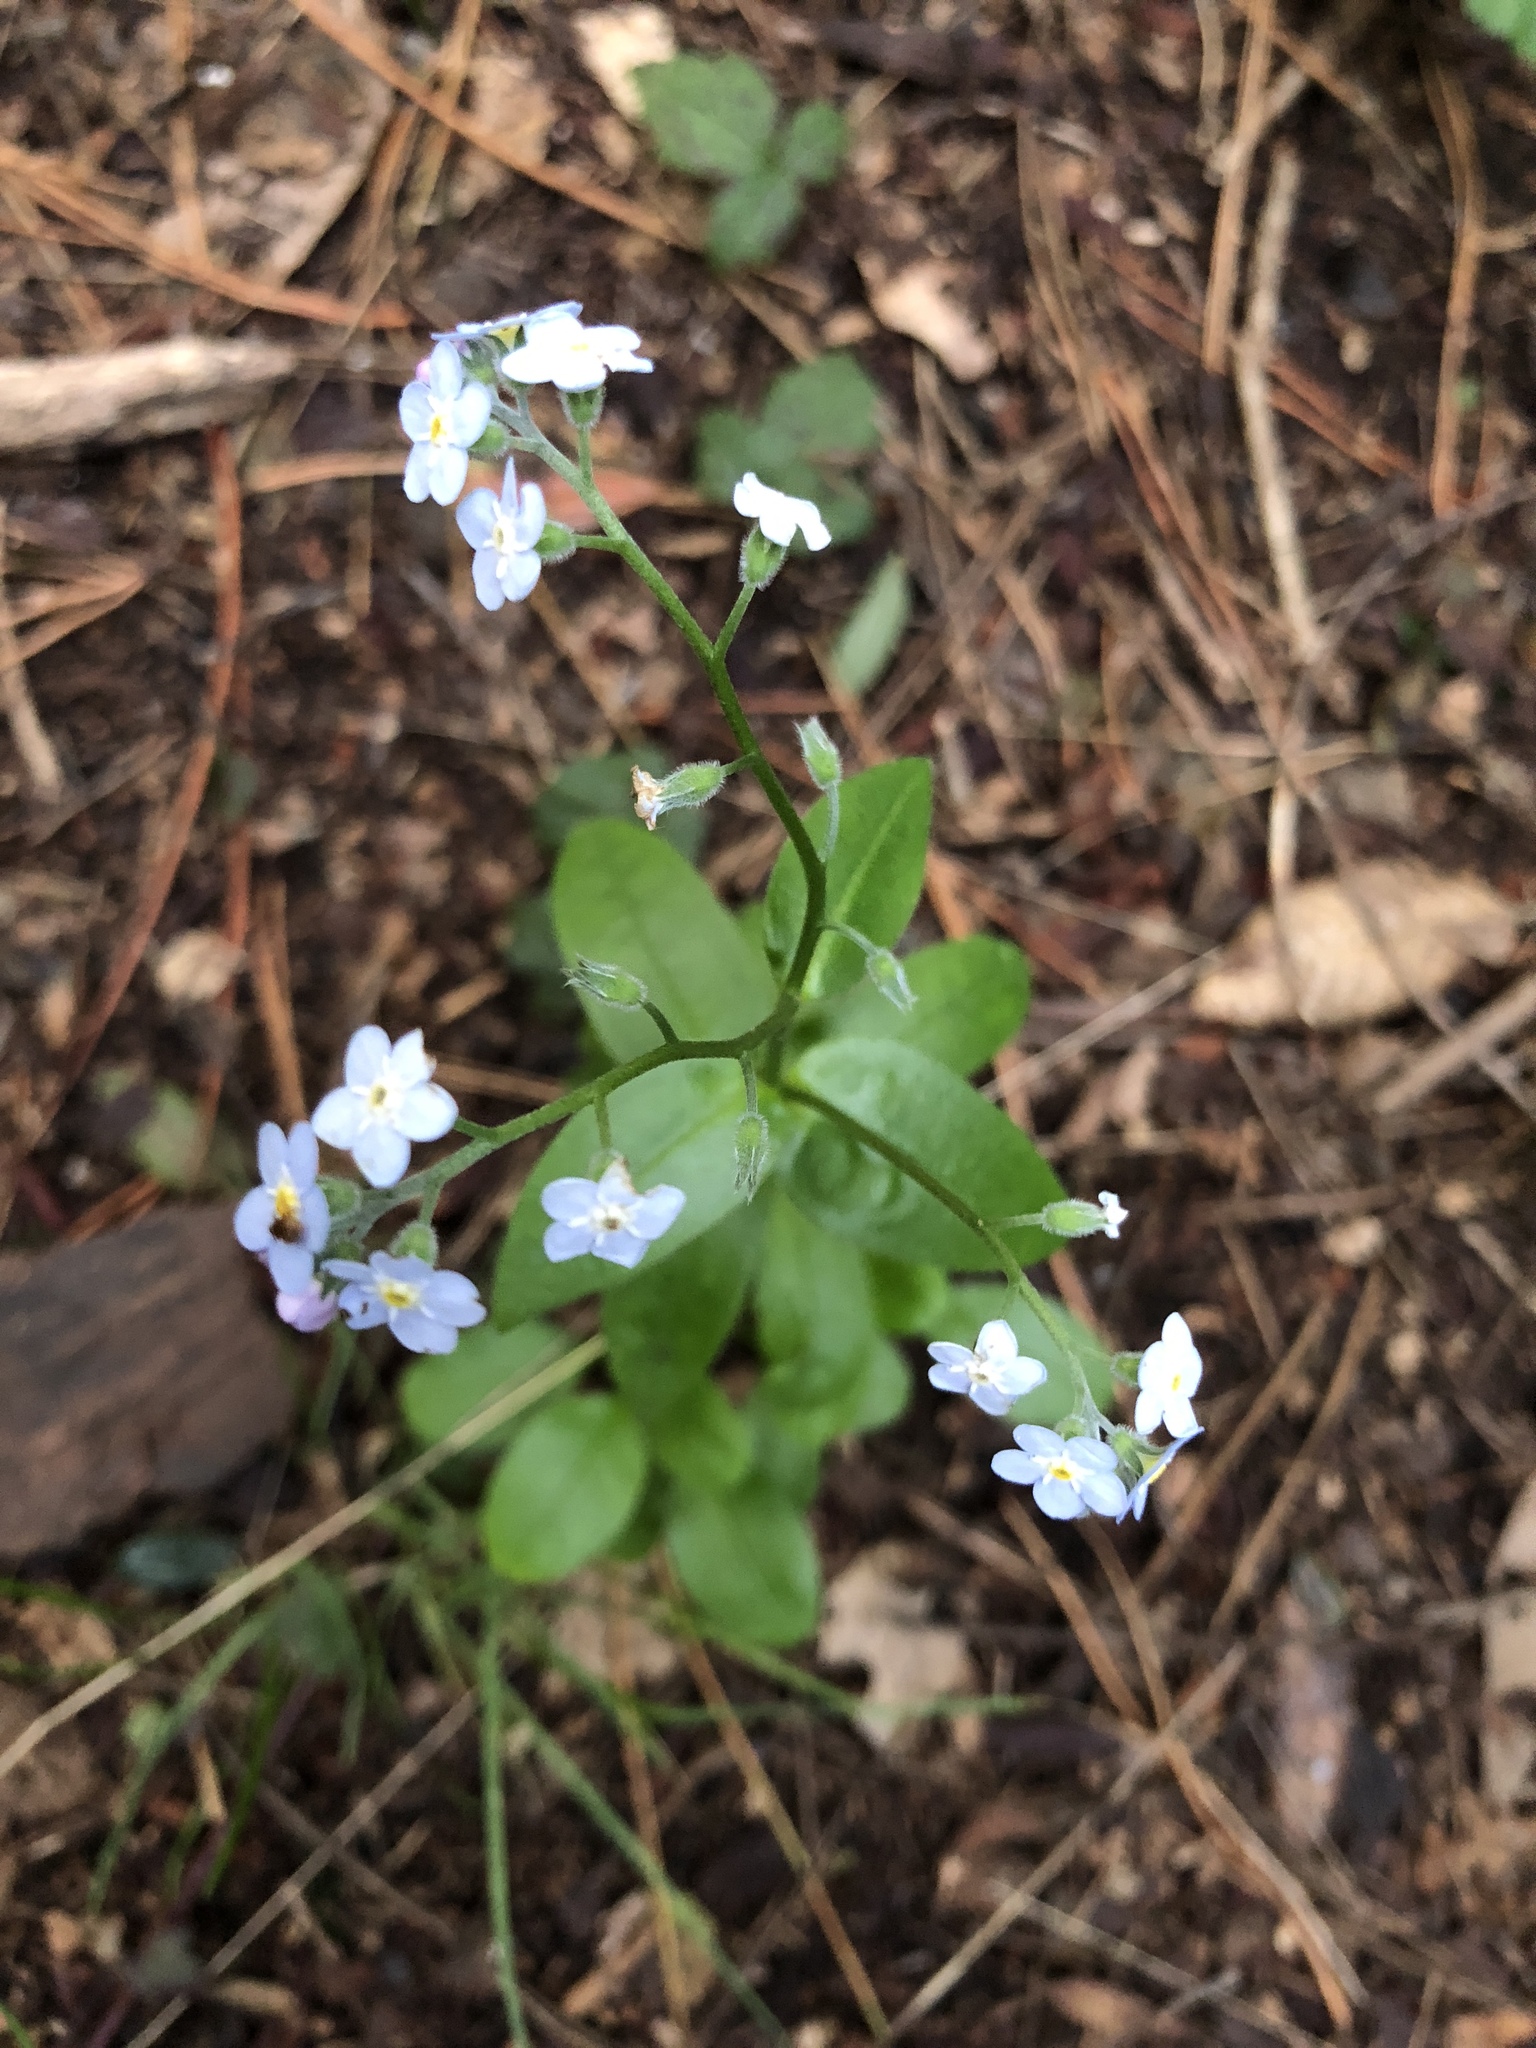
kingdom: Plantae
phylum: Tracheophyta
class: Magnoliopsida
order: Boraginales
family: Boraginaceae
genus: Myosotis
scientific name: Myosotis latifolia
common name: Broadleaf forget-me-not
